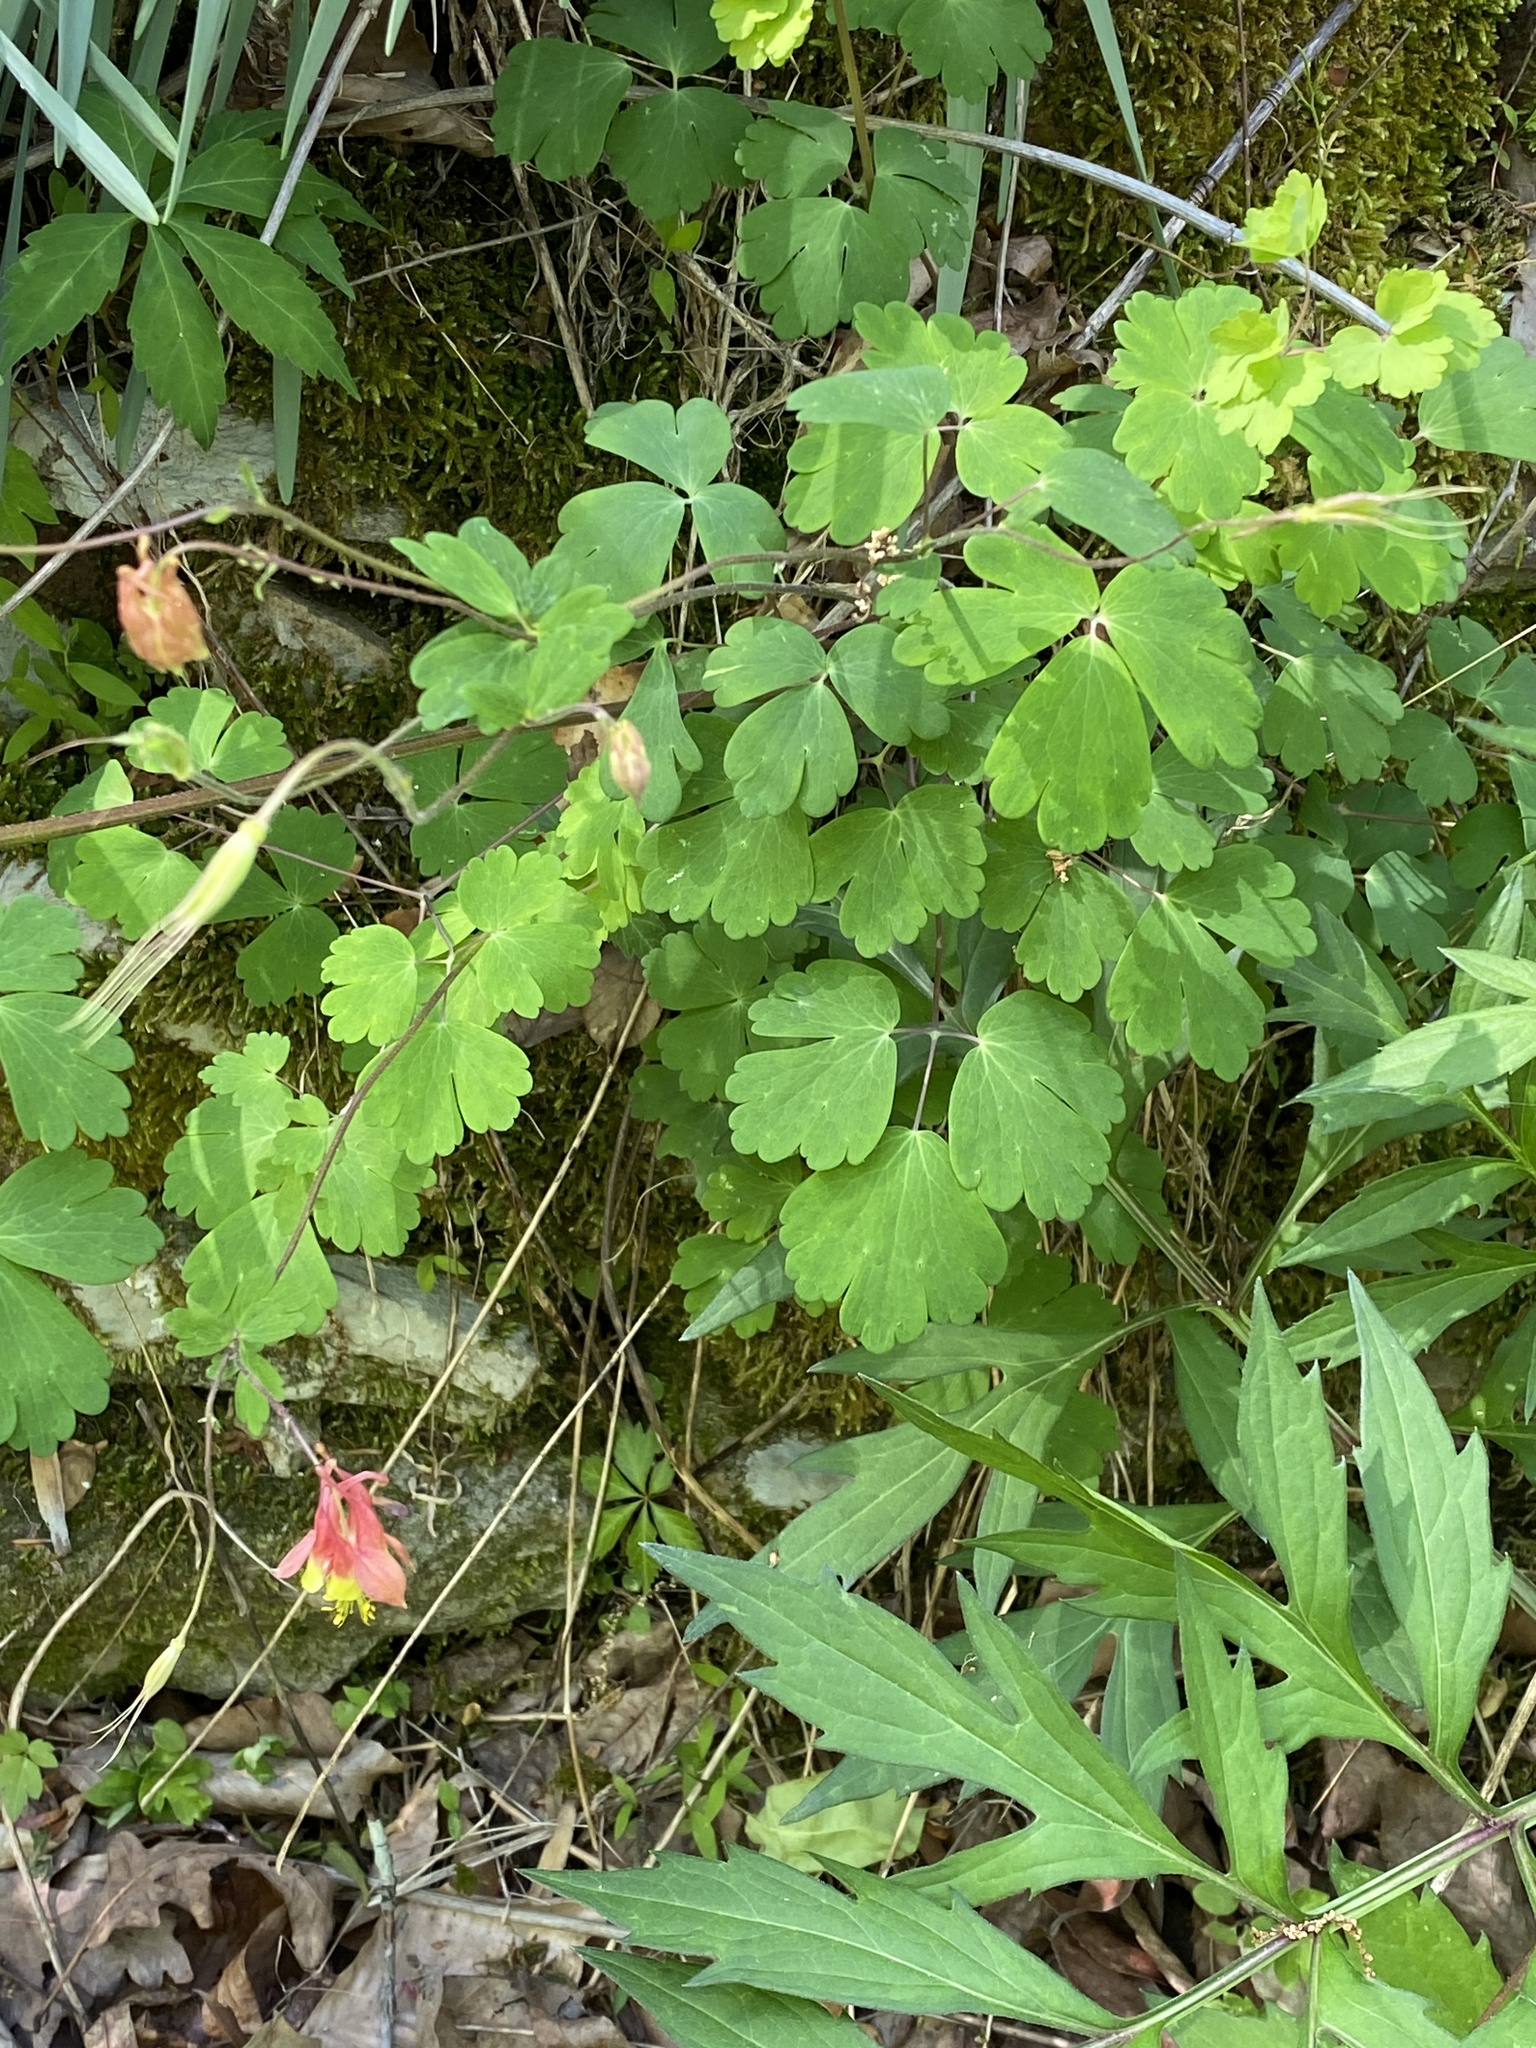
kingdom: Plantae
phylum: Tracheophyta
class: Magnoliopsida
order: Ranunculales
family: Ranunculaceae
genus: Aquilegia
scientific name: Aquilegia canadensis
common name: American columbine
